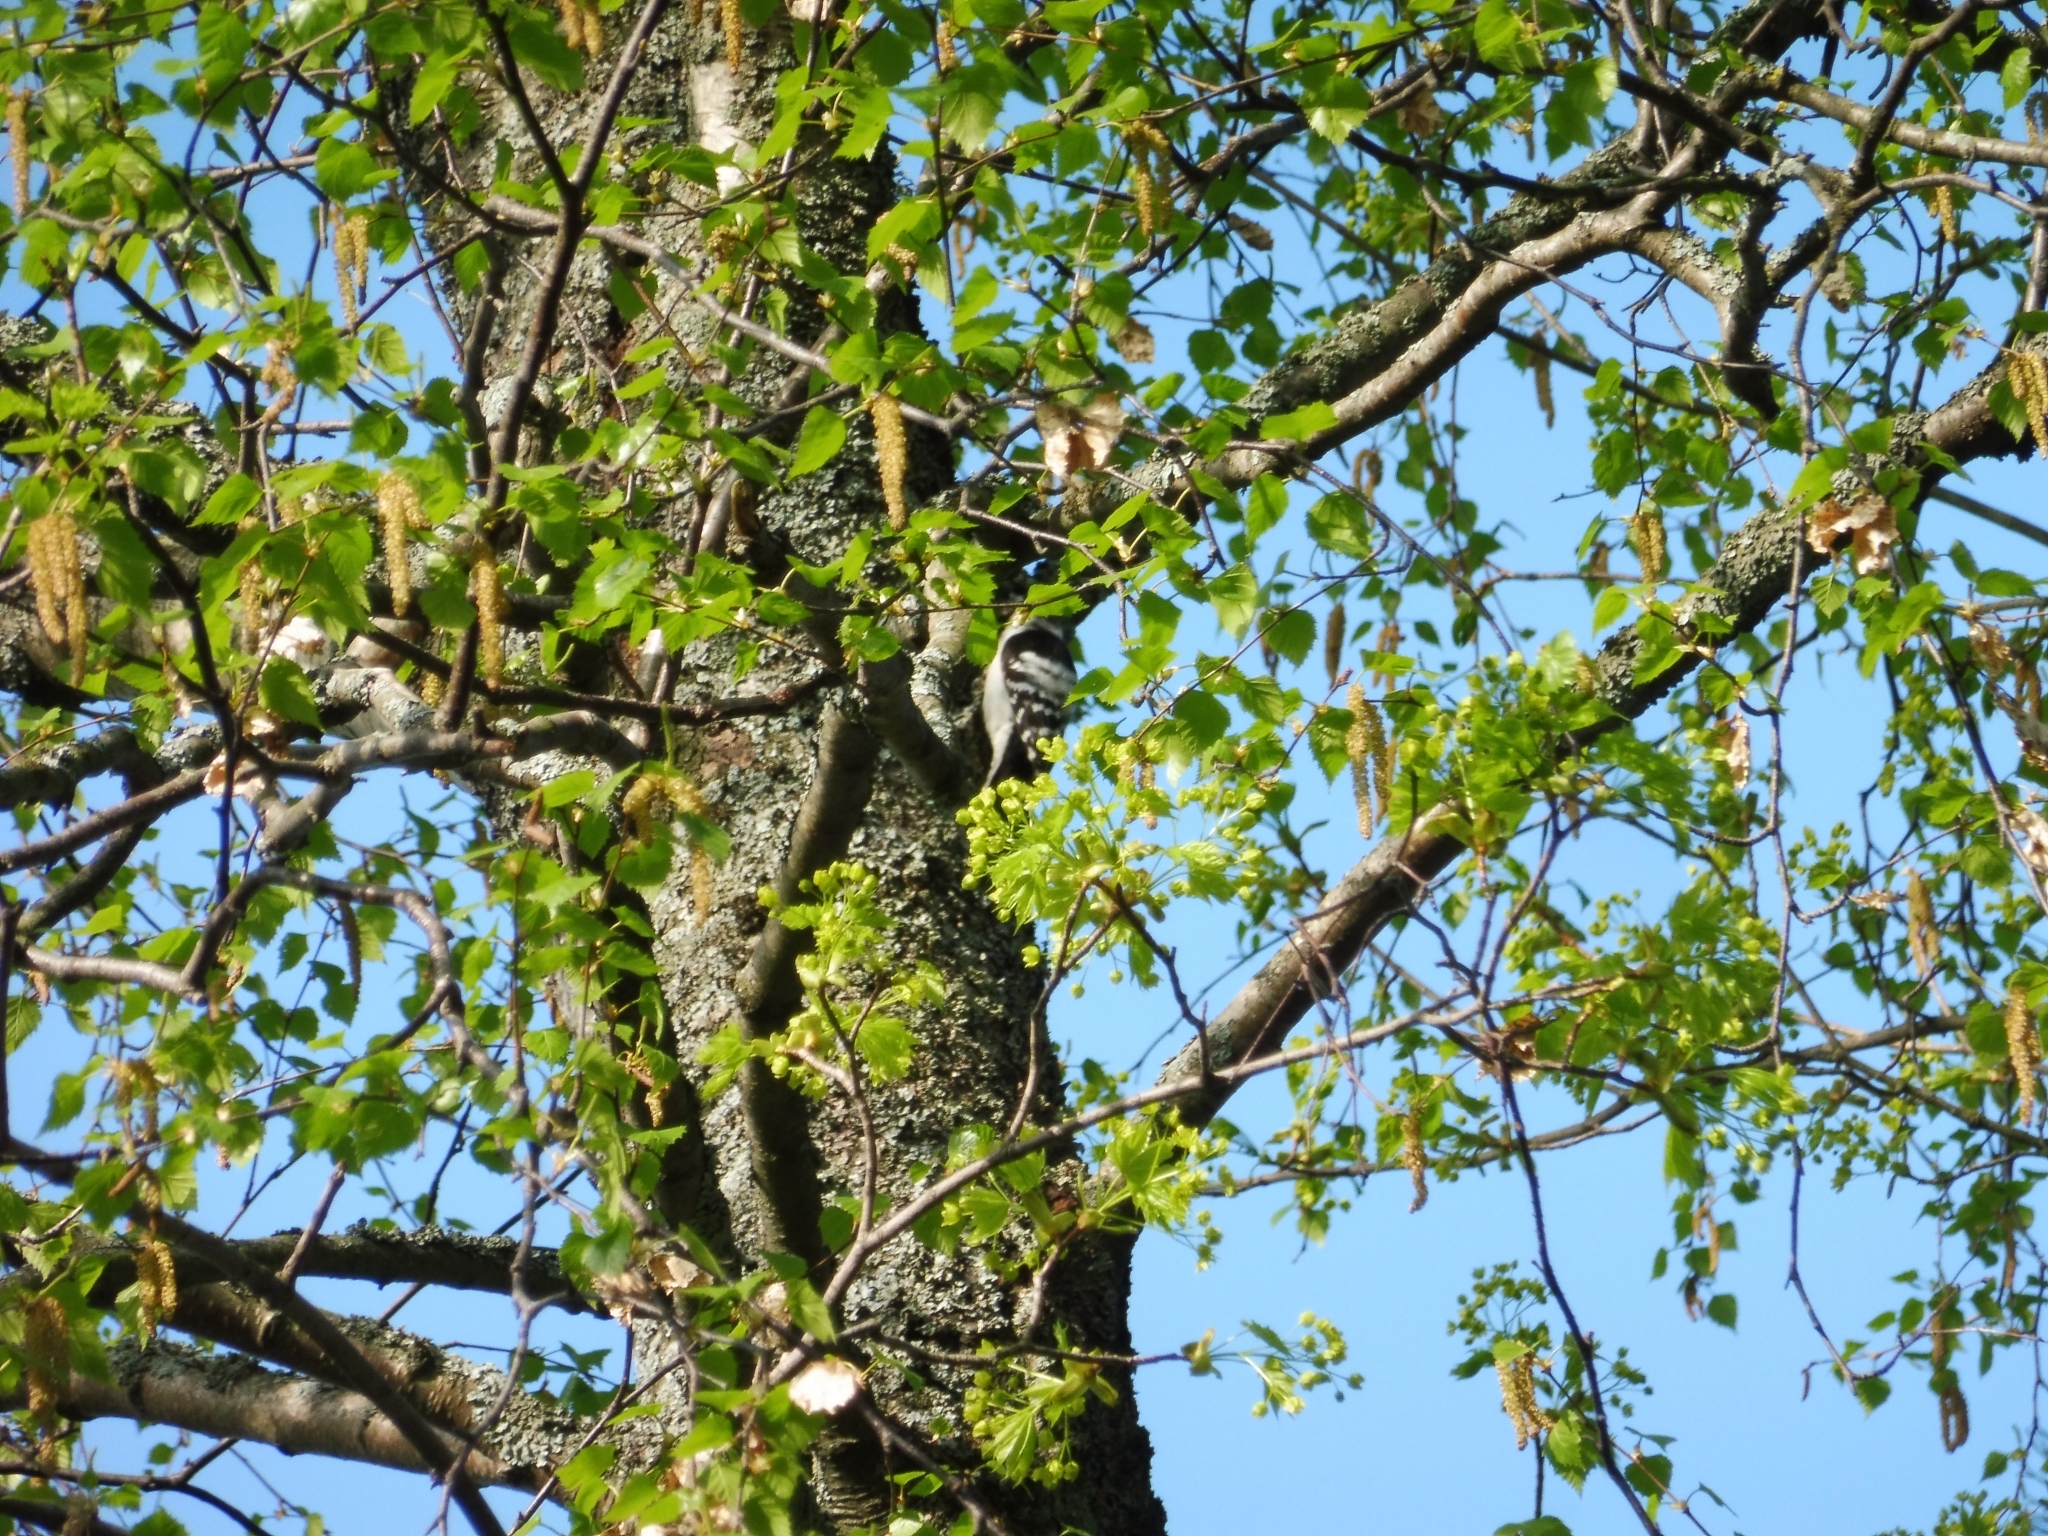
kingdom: Animalia
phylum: Chordata
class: Aves
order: Piciformes
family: Picidae
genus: Dryobates
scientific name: Dryobates minor
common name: Lesser spotted woodpecker
